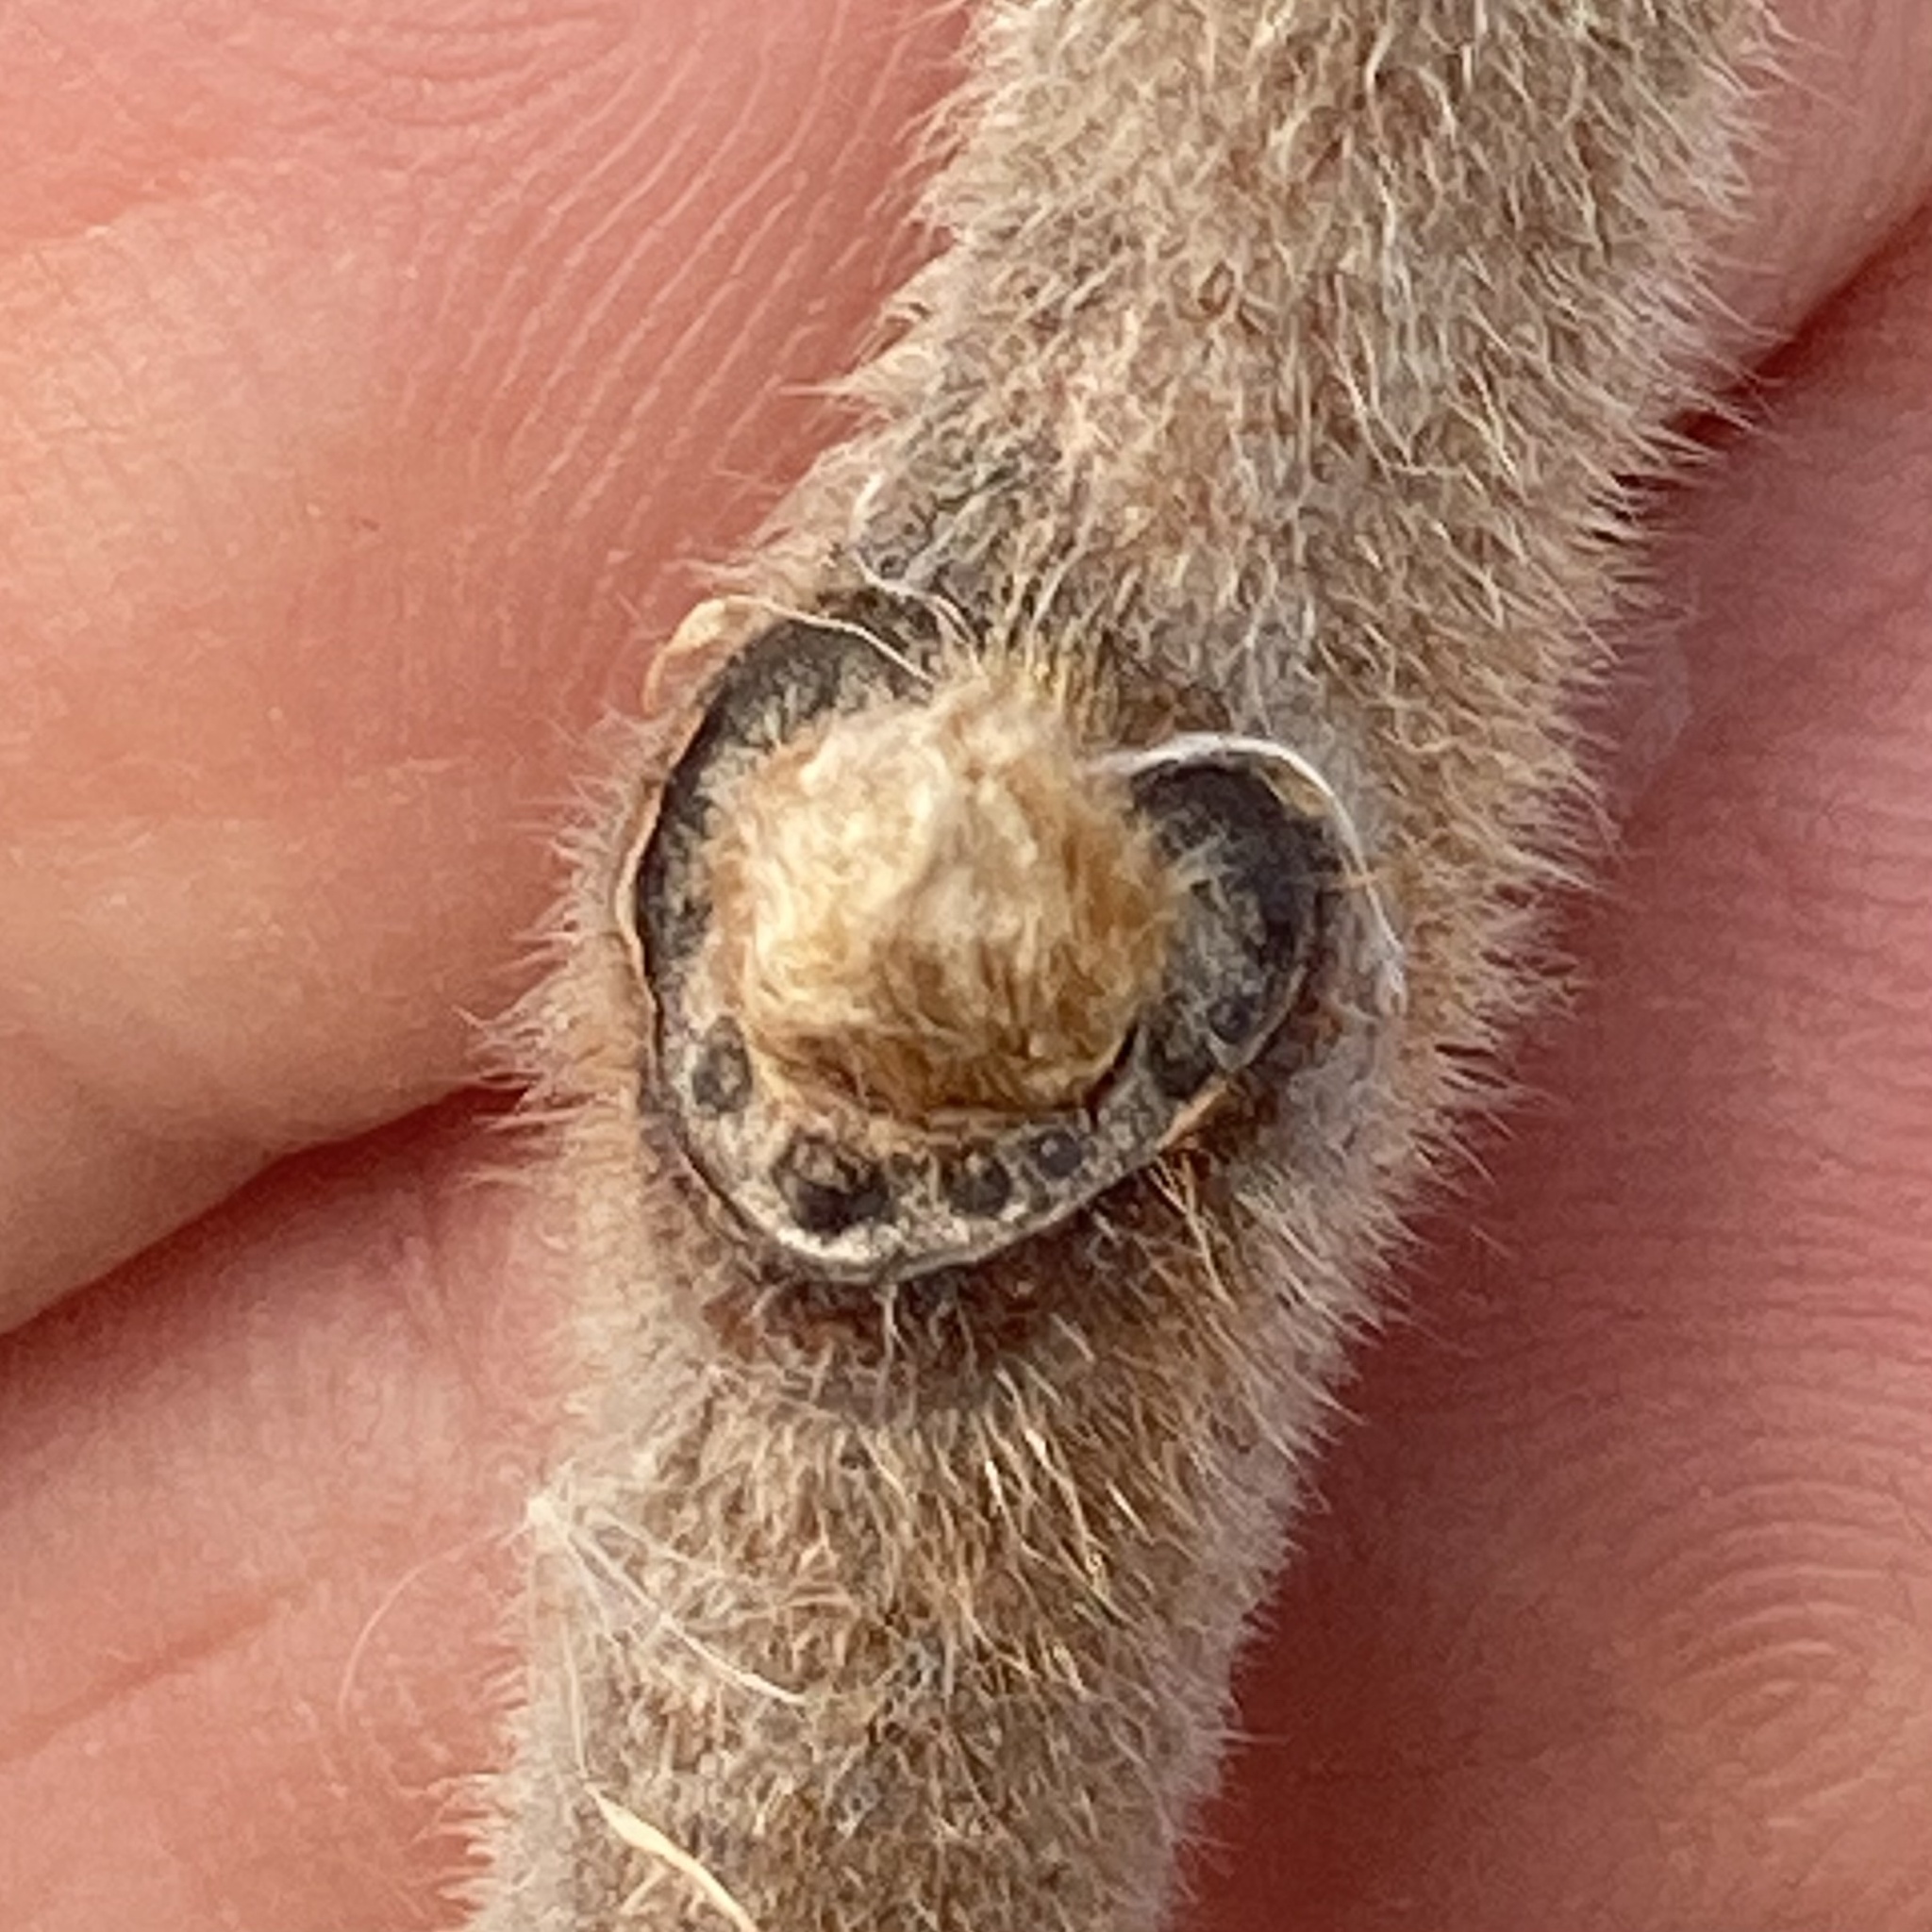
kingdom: Plantae
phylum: Tracheophyta
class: Magnoliopsida
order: Sapindales
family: Anacardiaceae
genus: Rhus
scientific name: Rhus typhina
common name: Staghorn sumac
